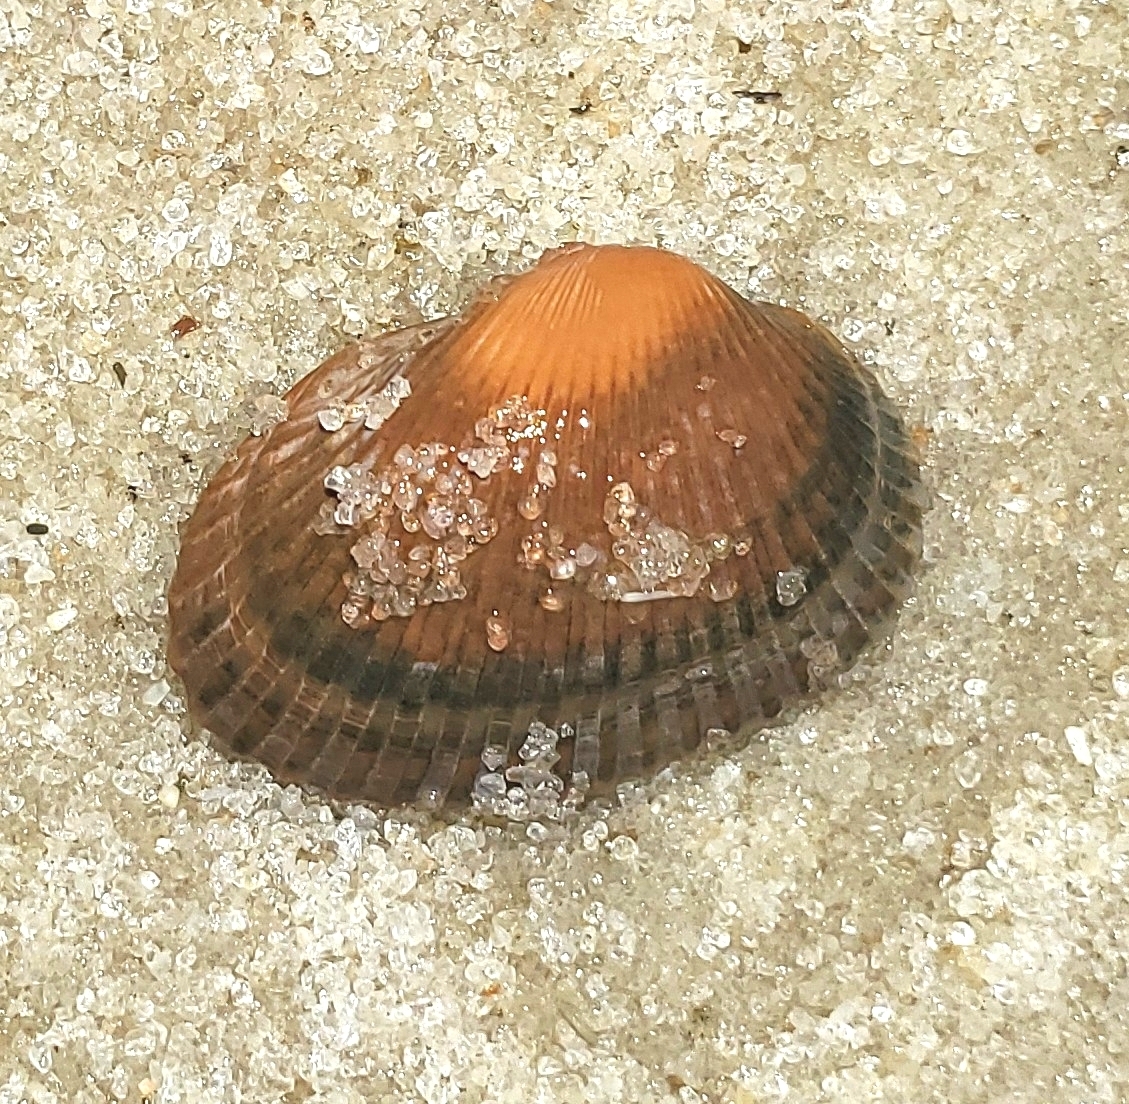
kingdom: Animalia
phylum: Mollusca
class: Bivalvia
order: Arcida
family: Arcidae
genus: Anadara
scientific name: Anadara transversa
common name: Transverse ark
